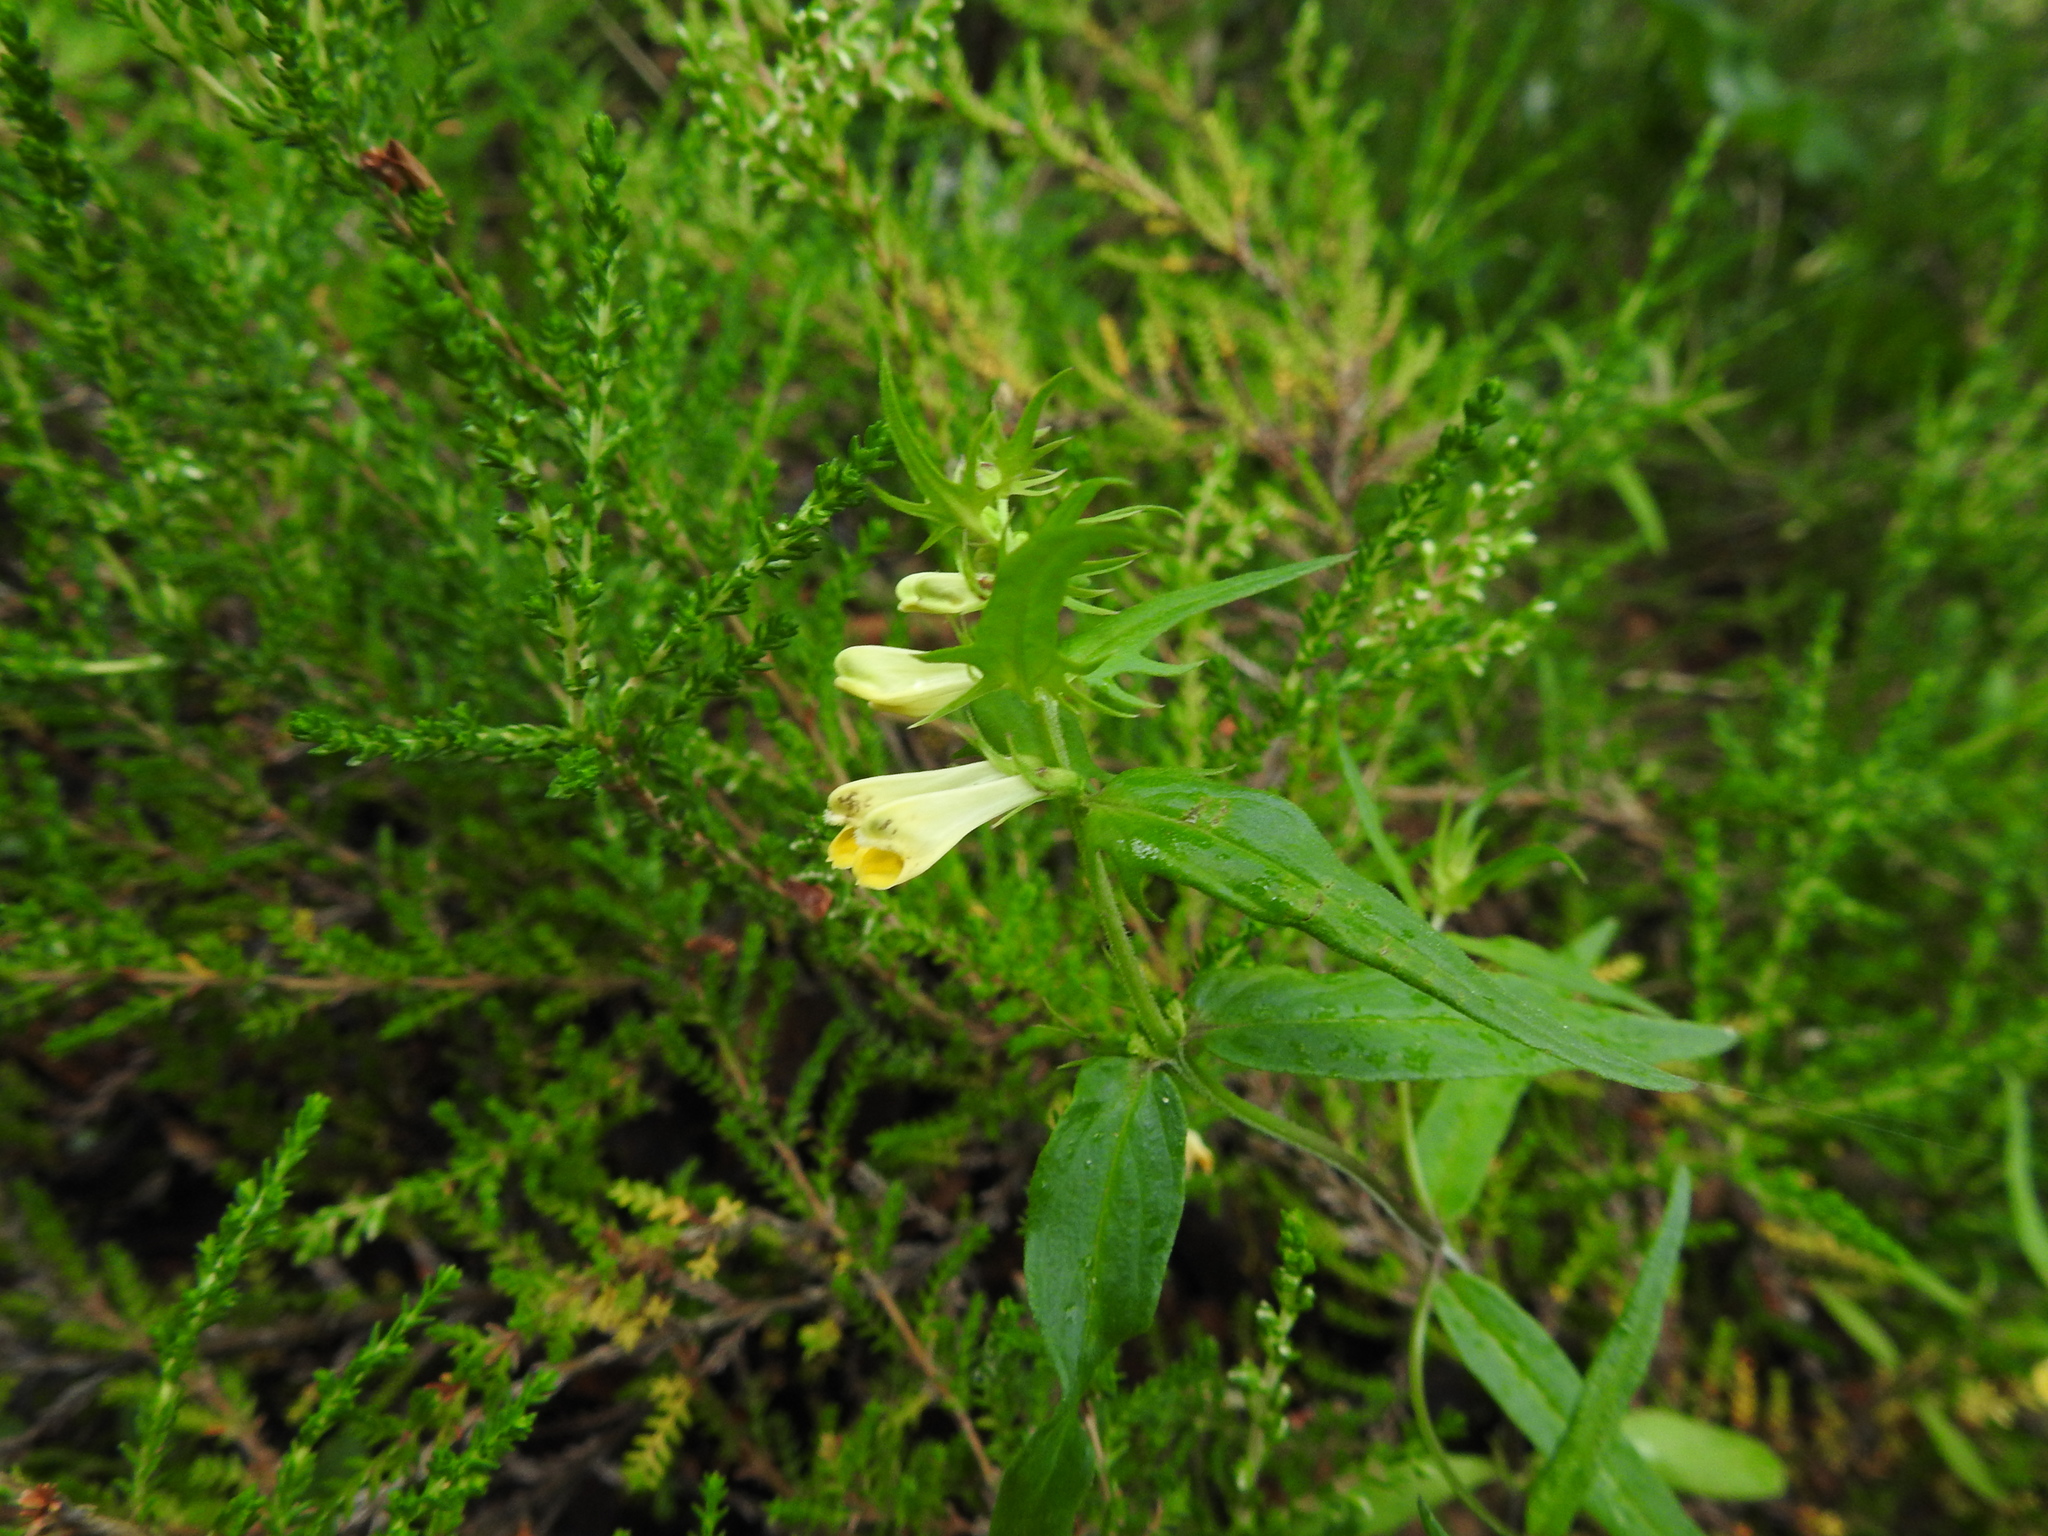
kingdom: Plantae
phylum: Tracheophyta
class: Magnoliopsida
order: Lamiales
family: Orobanchaceae
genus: Melampyrum
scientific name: Melampyrum pratense
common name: Common cow-wheat
